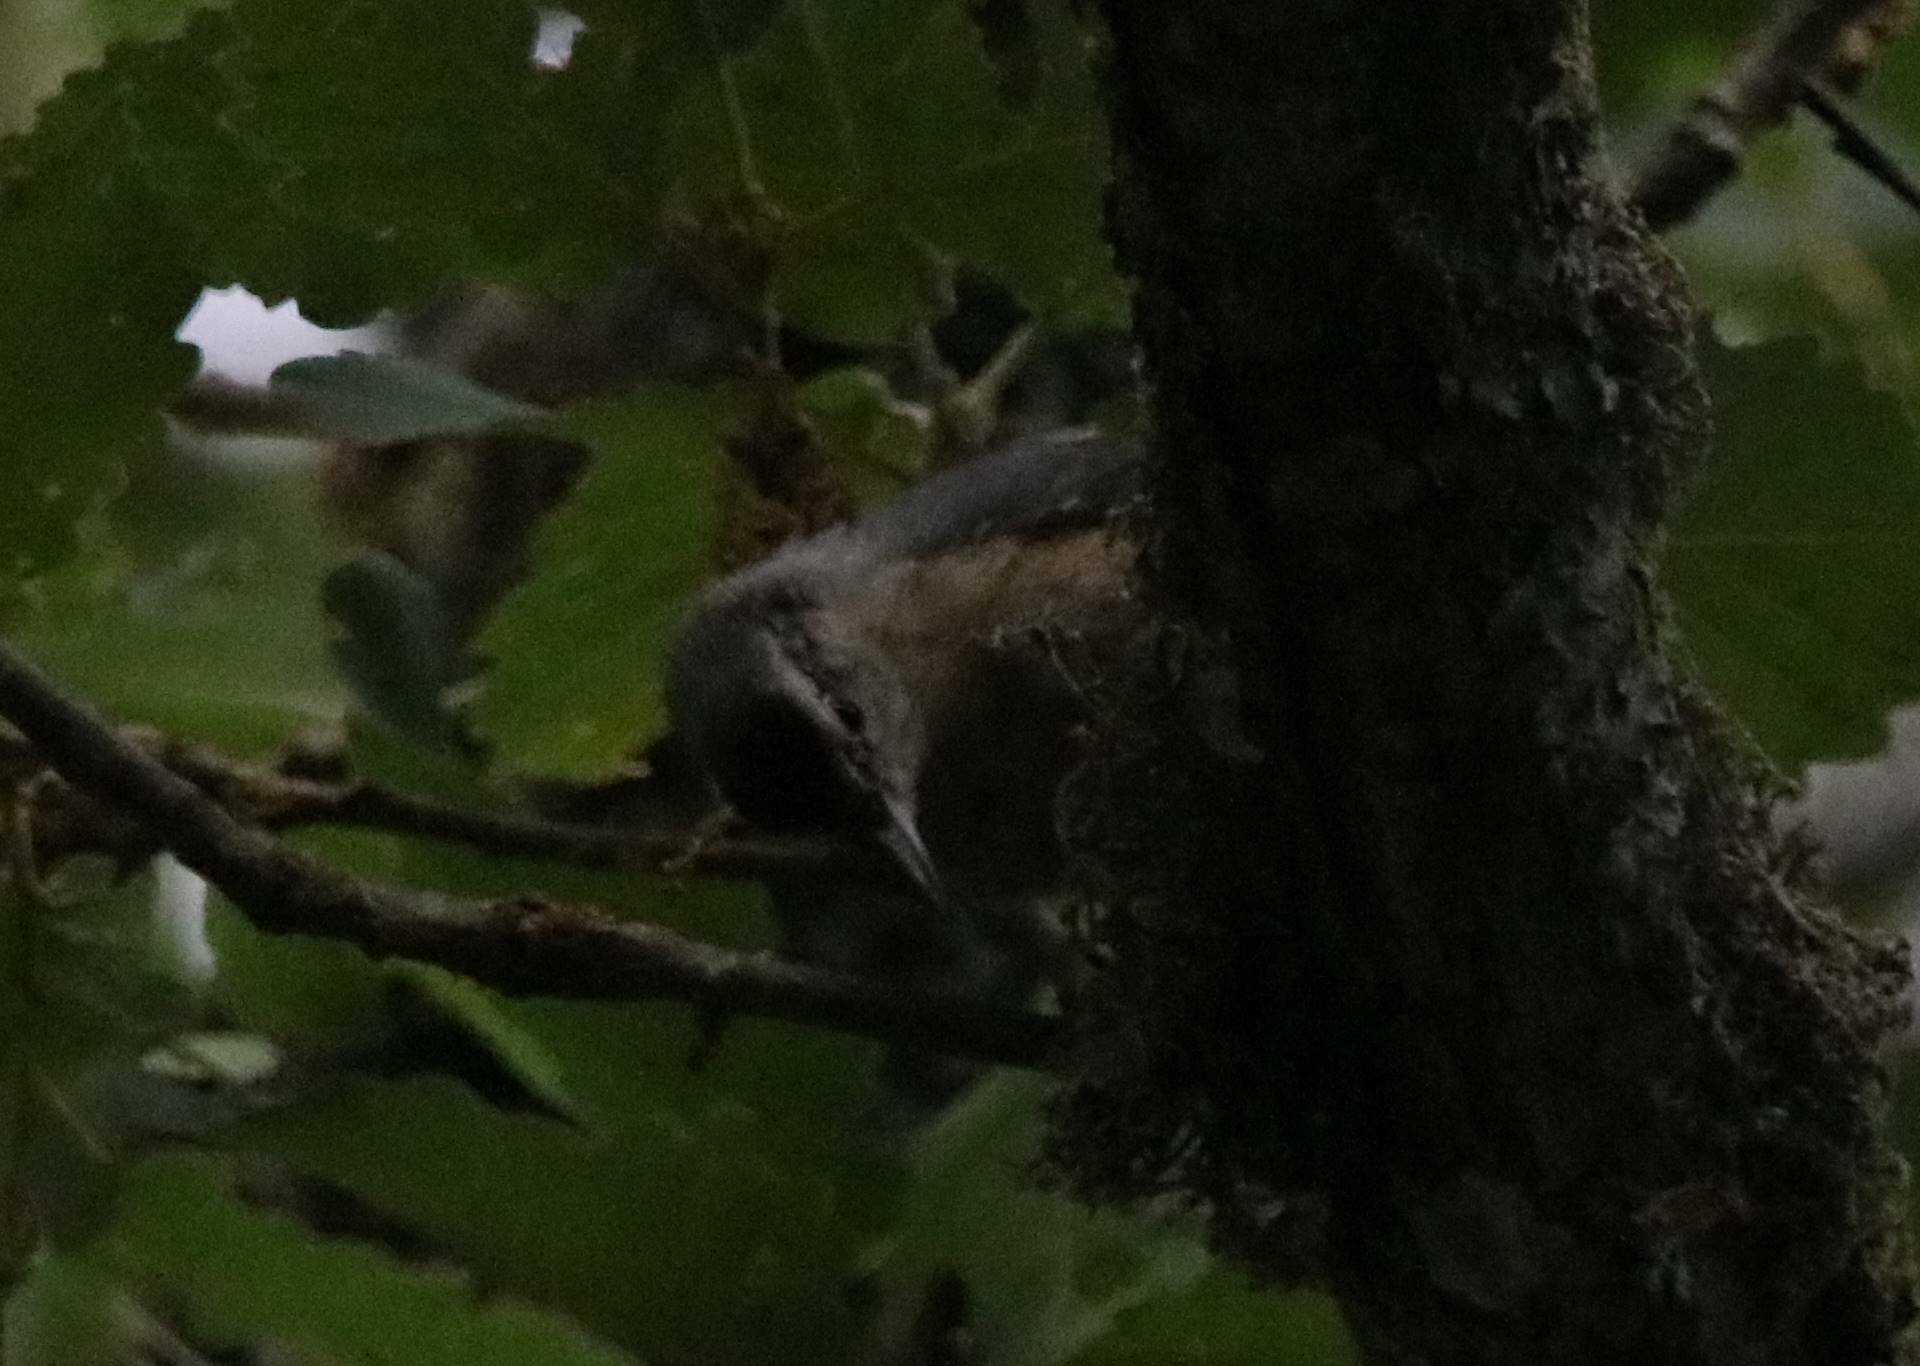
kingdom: Animalia
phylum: Chordata
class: Aves
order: Passeriformes
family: Sittidae
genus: Sitta
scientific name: Sitta ledanti
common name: Algerian nuthatch
